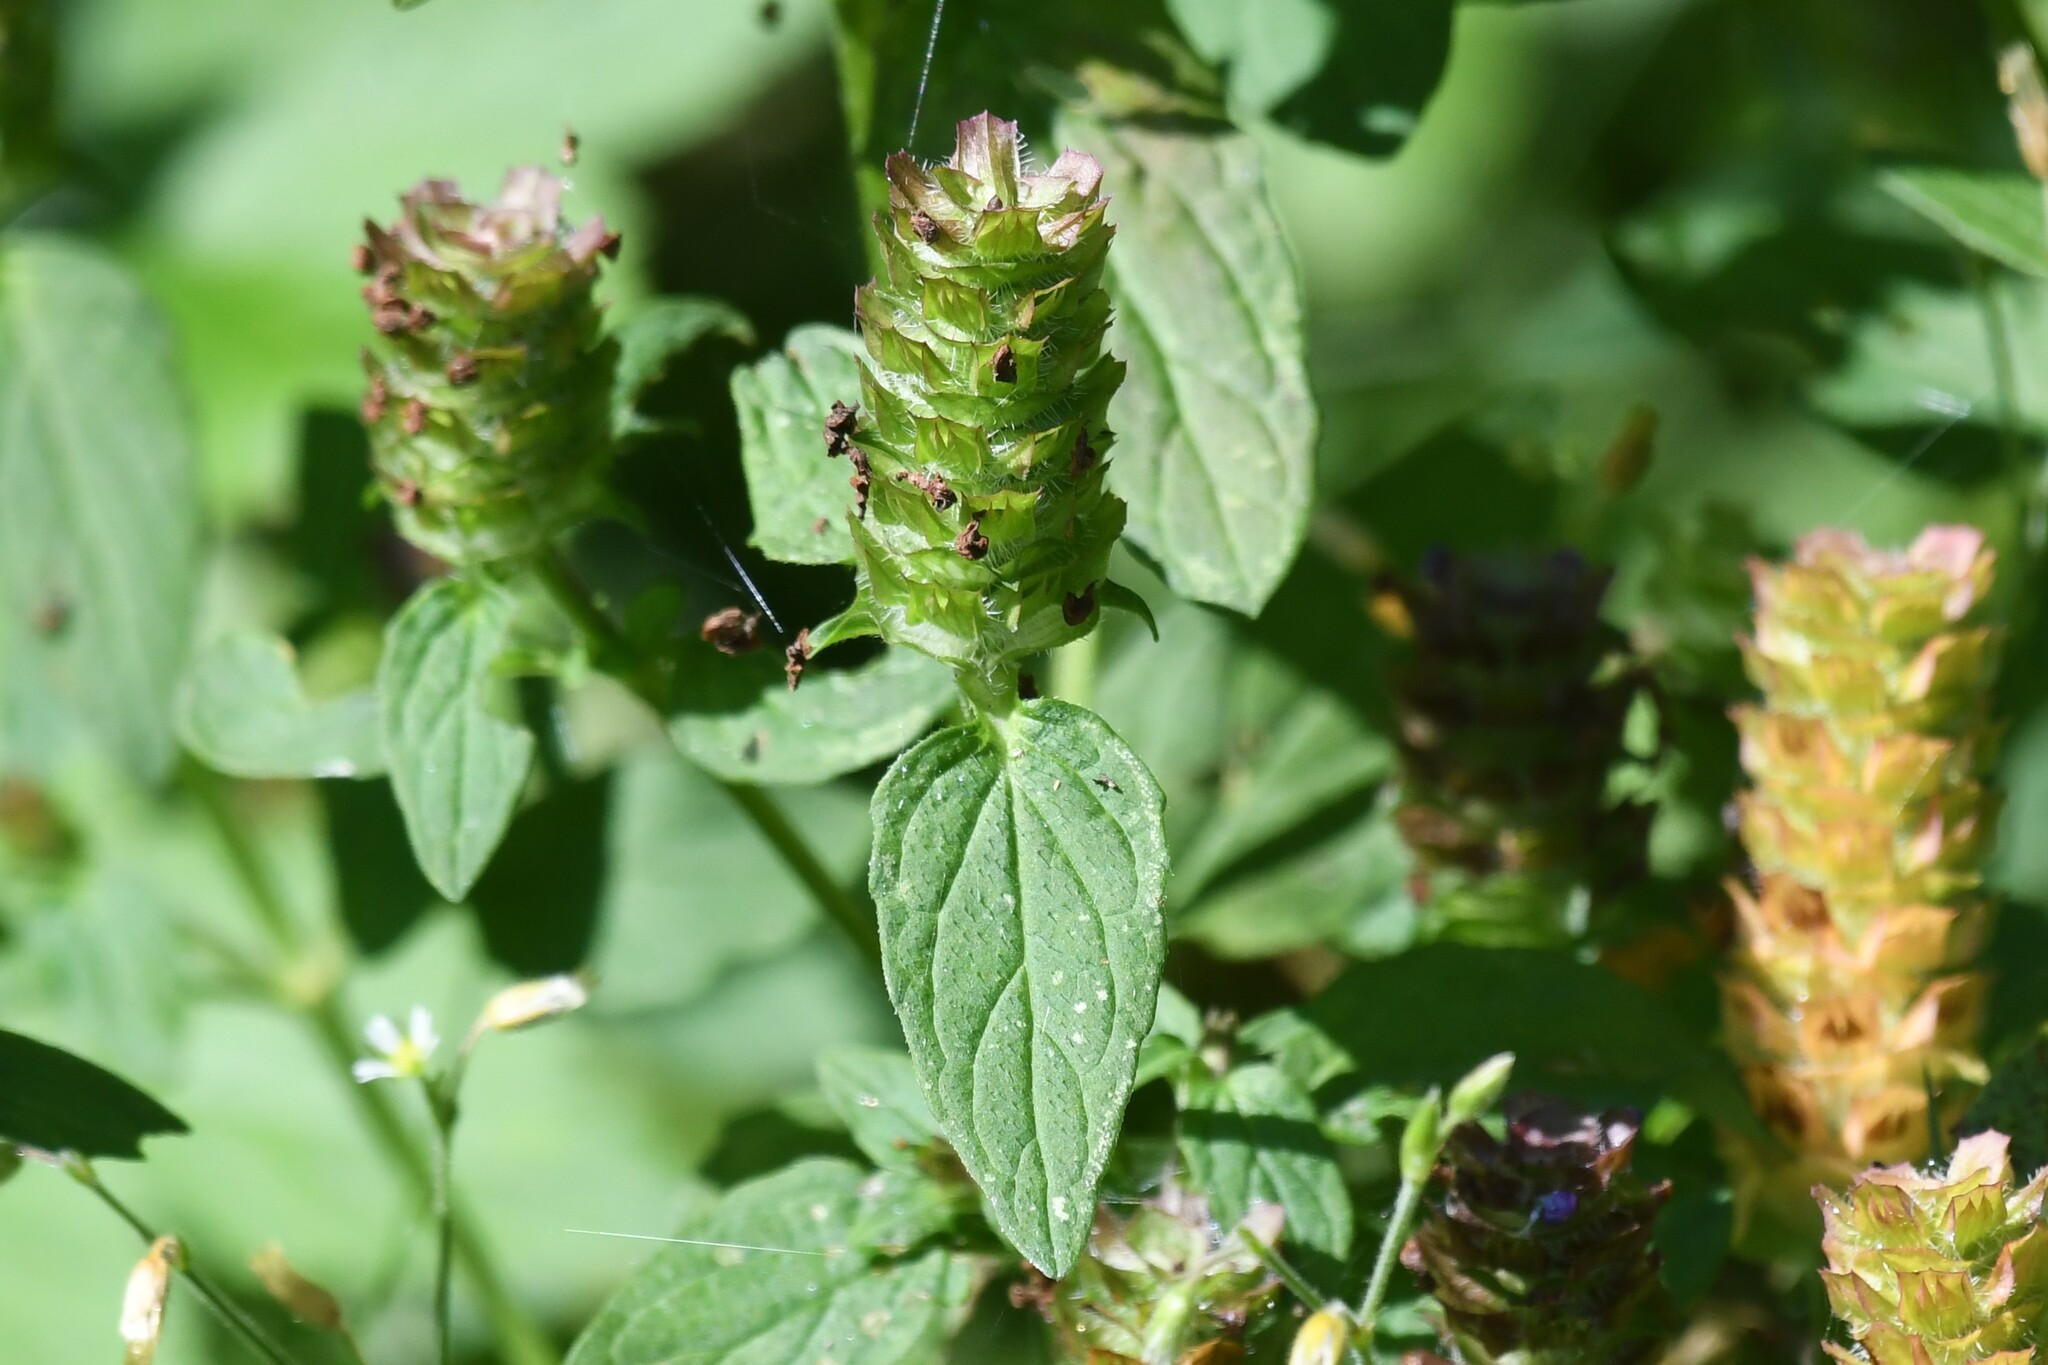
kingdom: Plantae
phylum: Tracheophyta
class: Magnoliopsida
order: Lamiales
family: Lamiaceae
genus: Prunella
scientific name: Prunella vulgaris
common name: Heal-all
